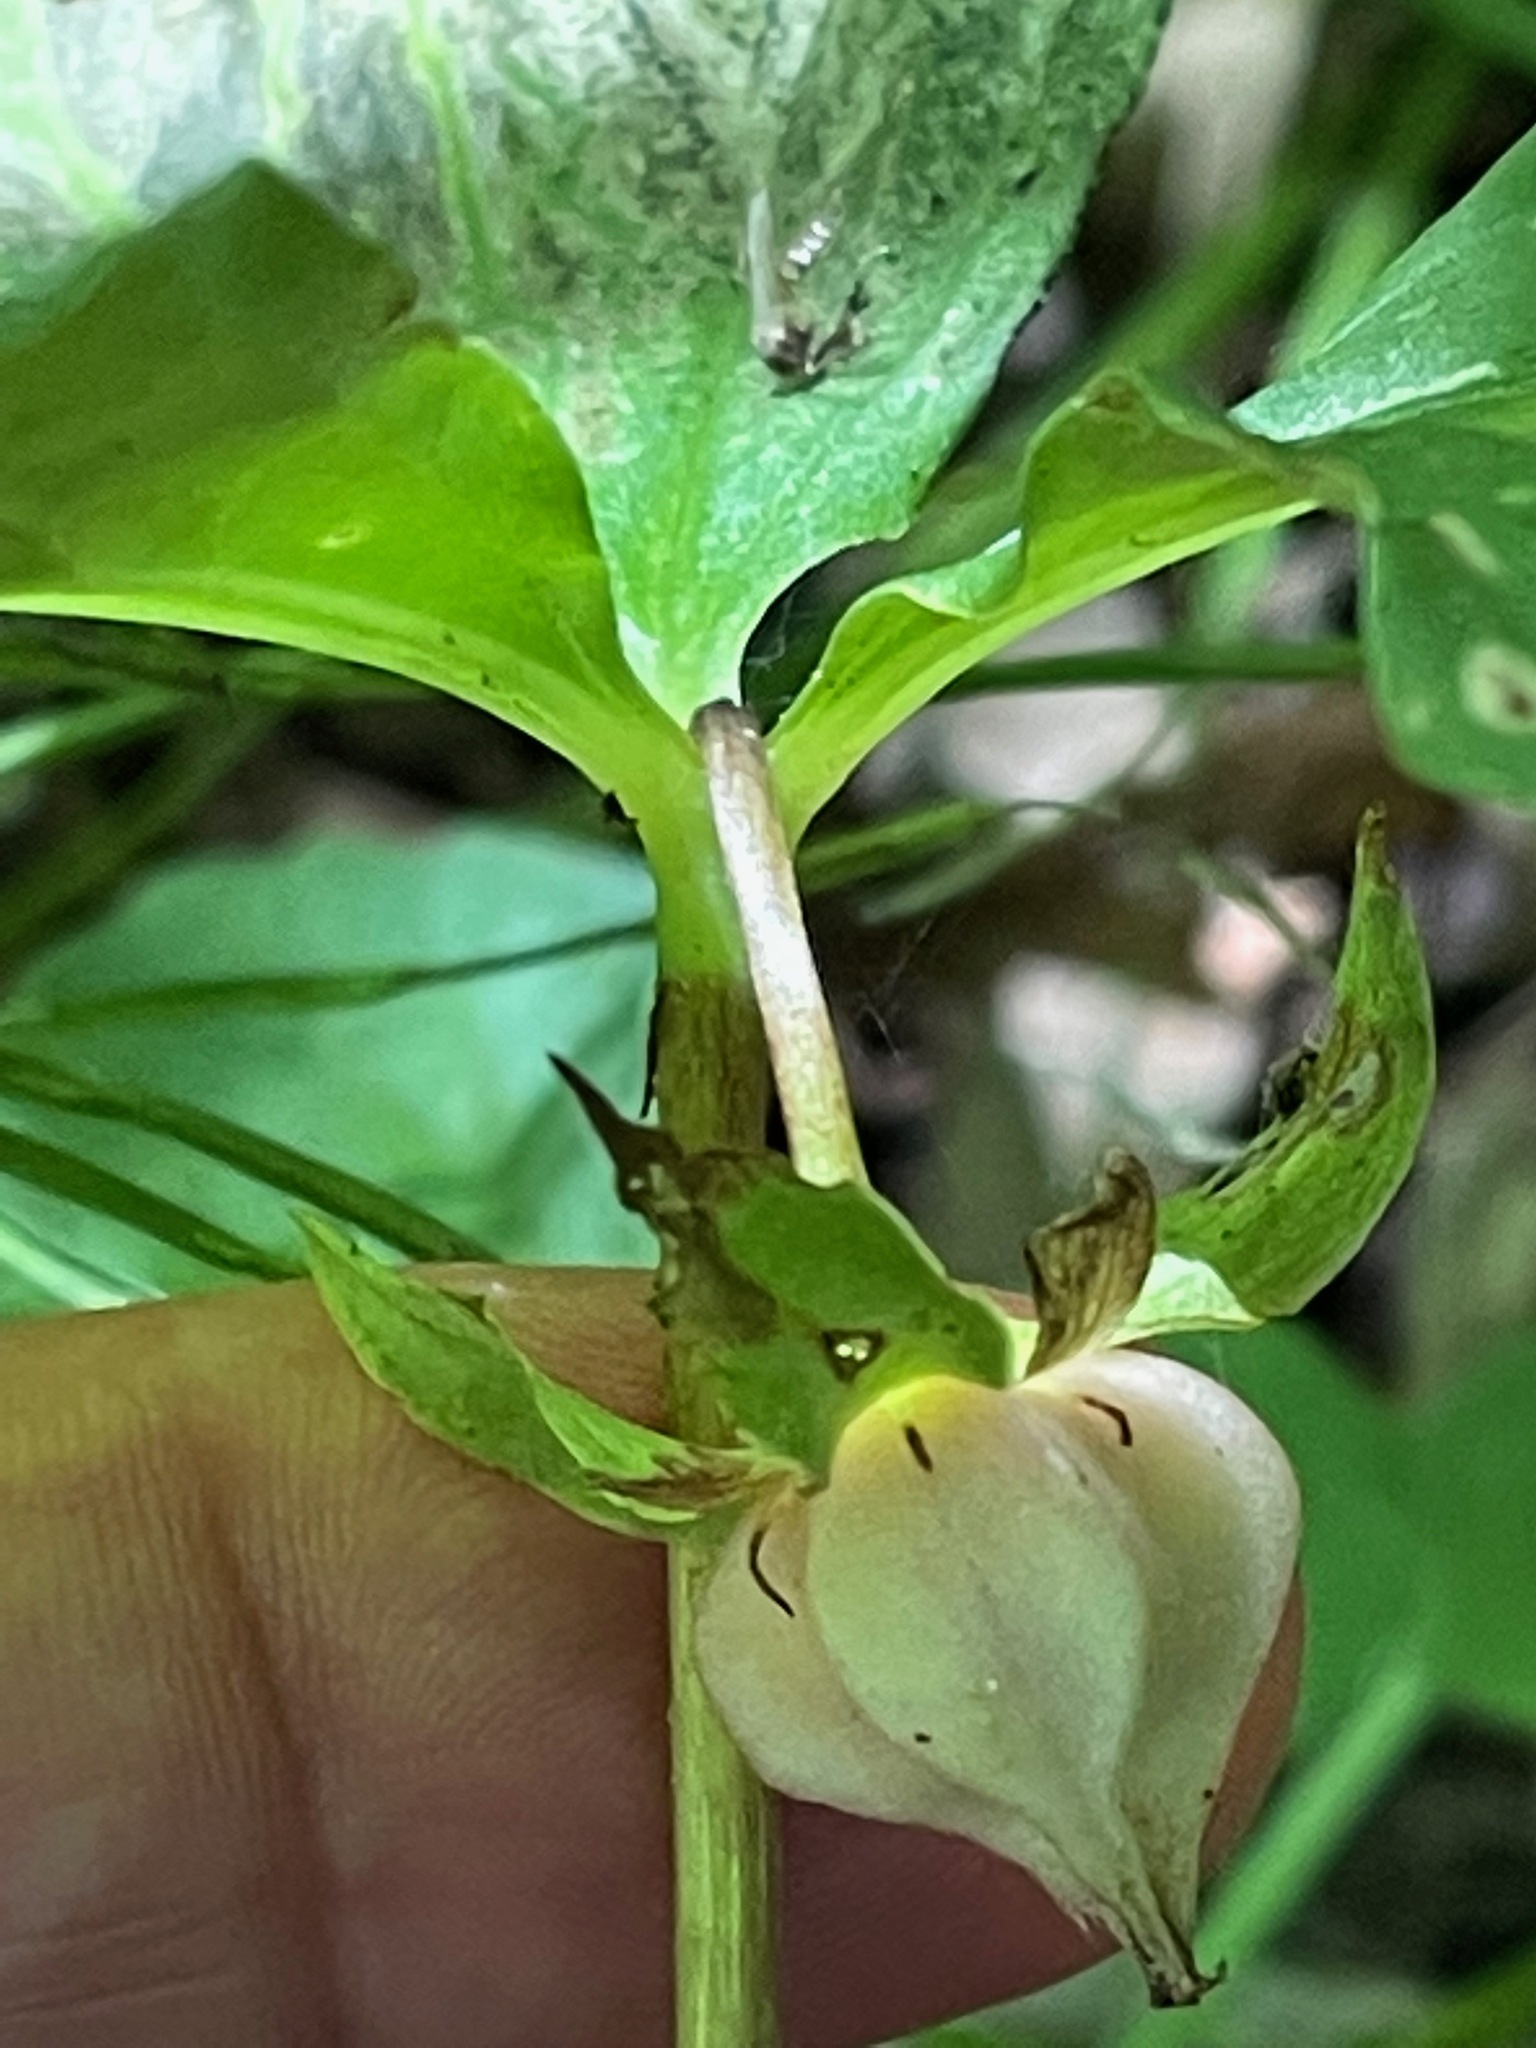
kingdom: Plantae
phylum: Tracheophyta
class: Liliopsida
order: Liliales
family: Melanthiaceae
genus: Trillium
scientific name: Trillium cernuum
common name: Nodding trillium
